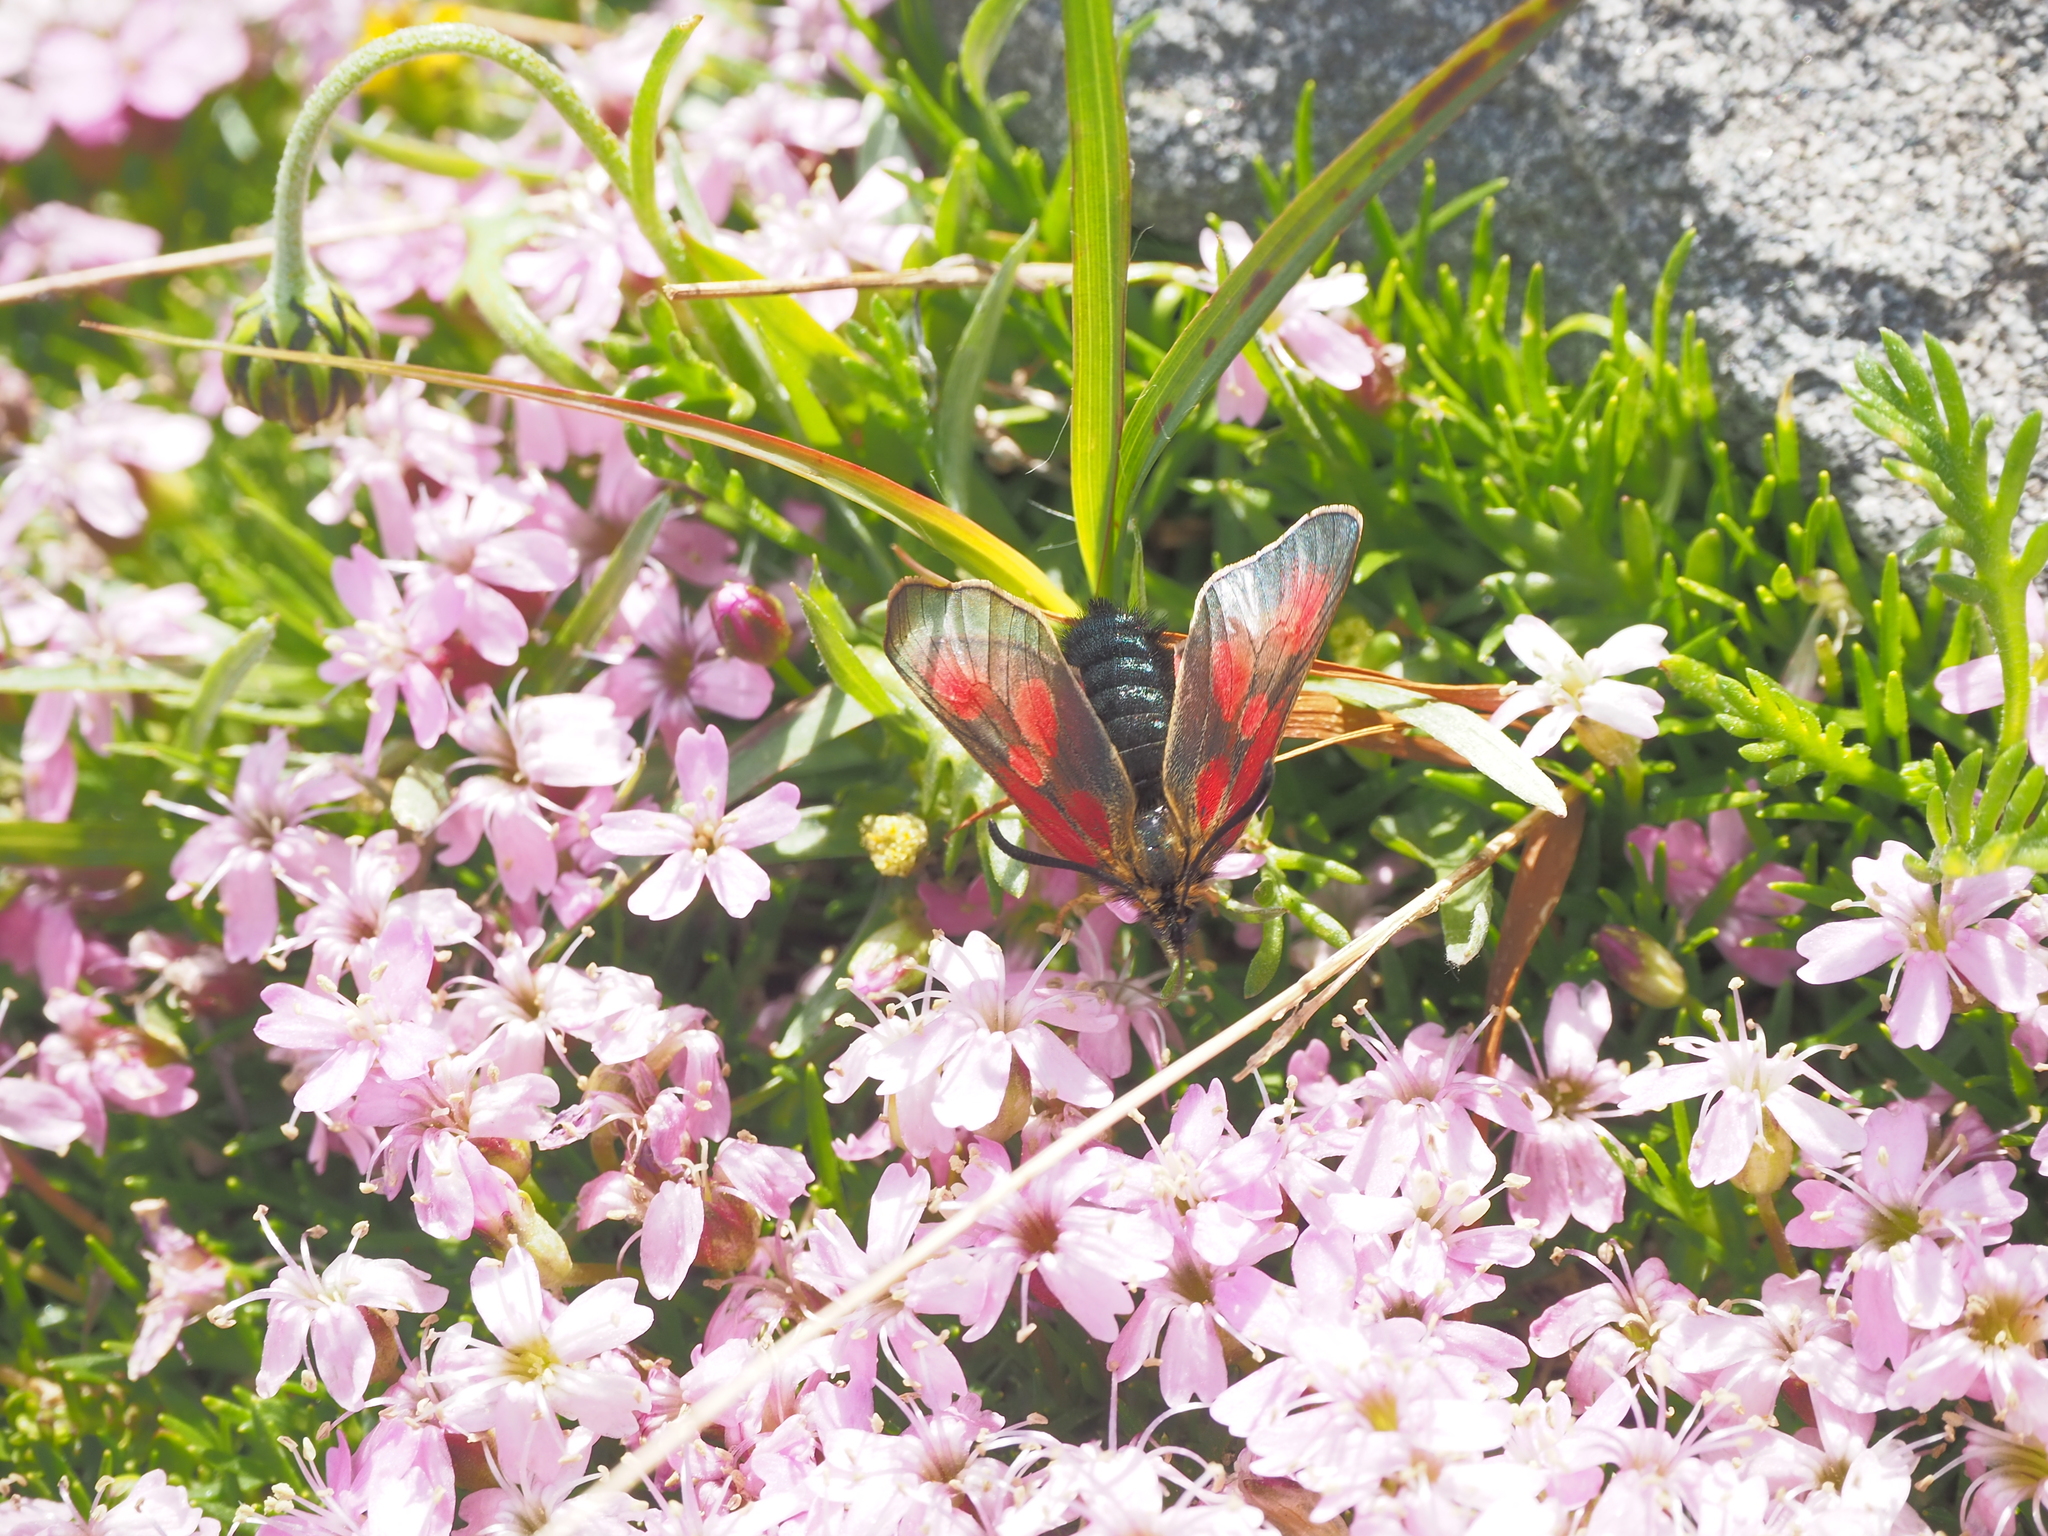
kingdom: Animalia
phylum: Arthropoda
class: Insecta
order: Lepidoptera
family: Zygaenidae
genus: Zygaena
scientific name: Zygaena exulans
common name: Scotch burnet
